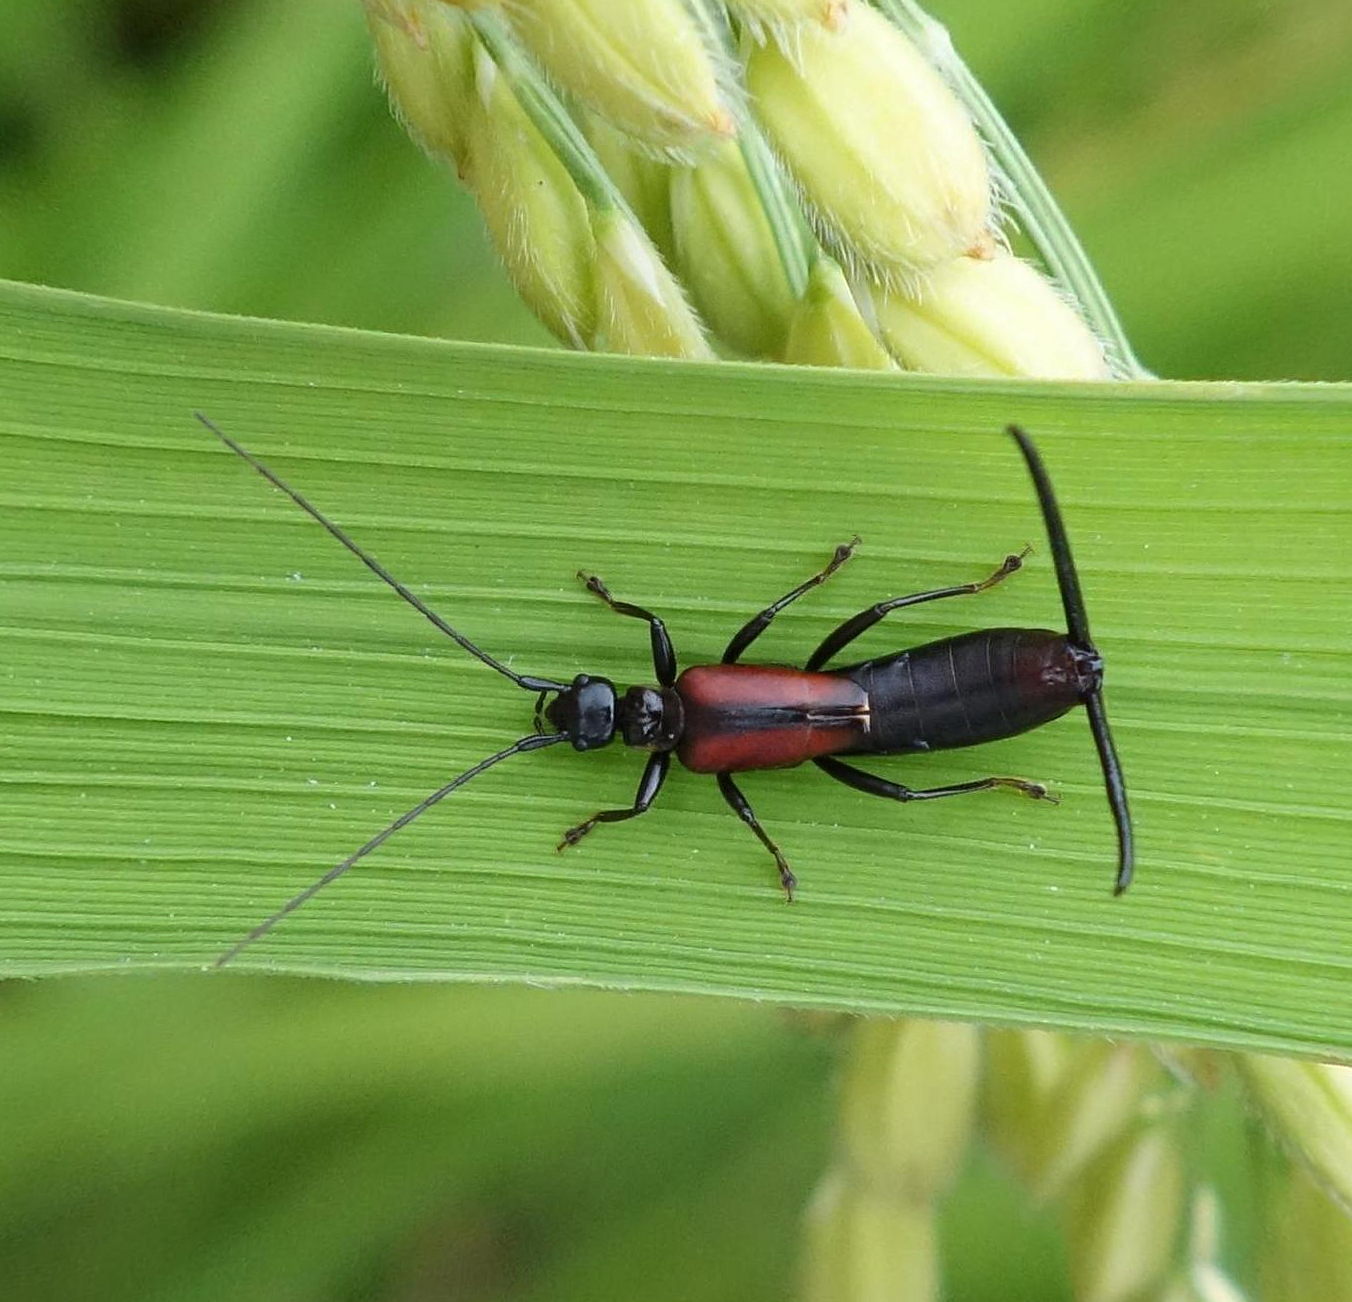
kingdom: Animalia
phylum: Arthropoda
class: Insecta
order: Dermaptera
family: Forficulidae
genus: Timomenus
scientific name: Timomenus komarovi
